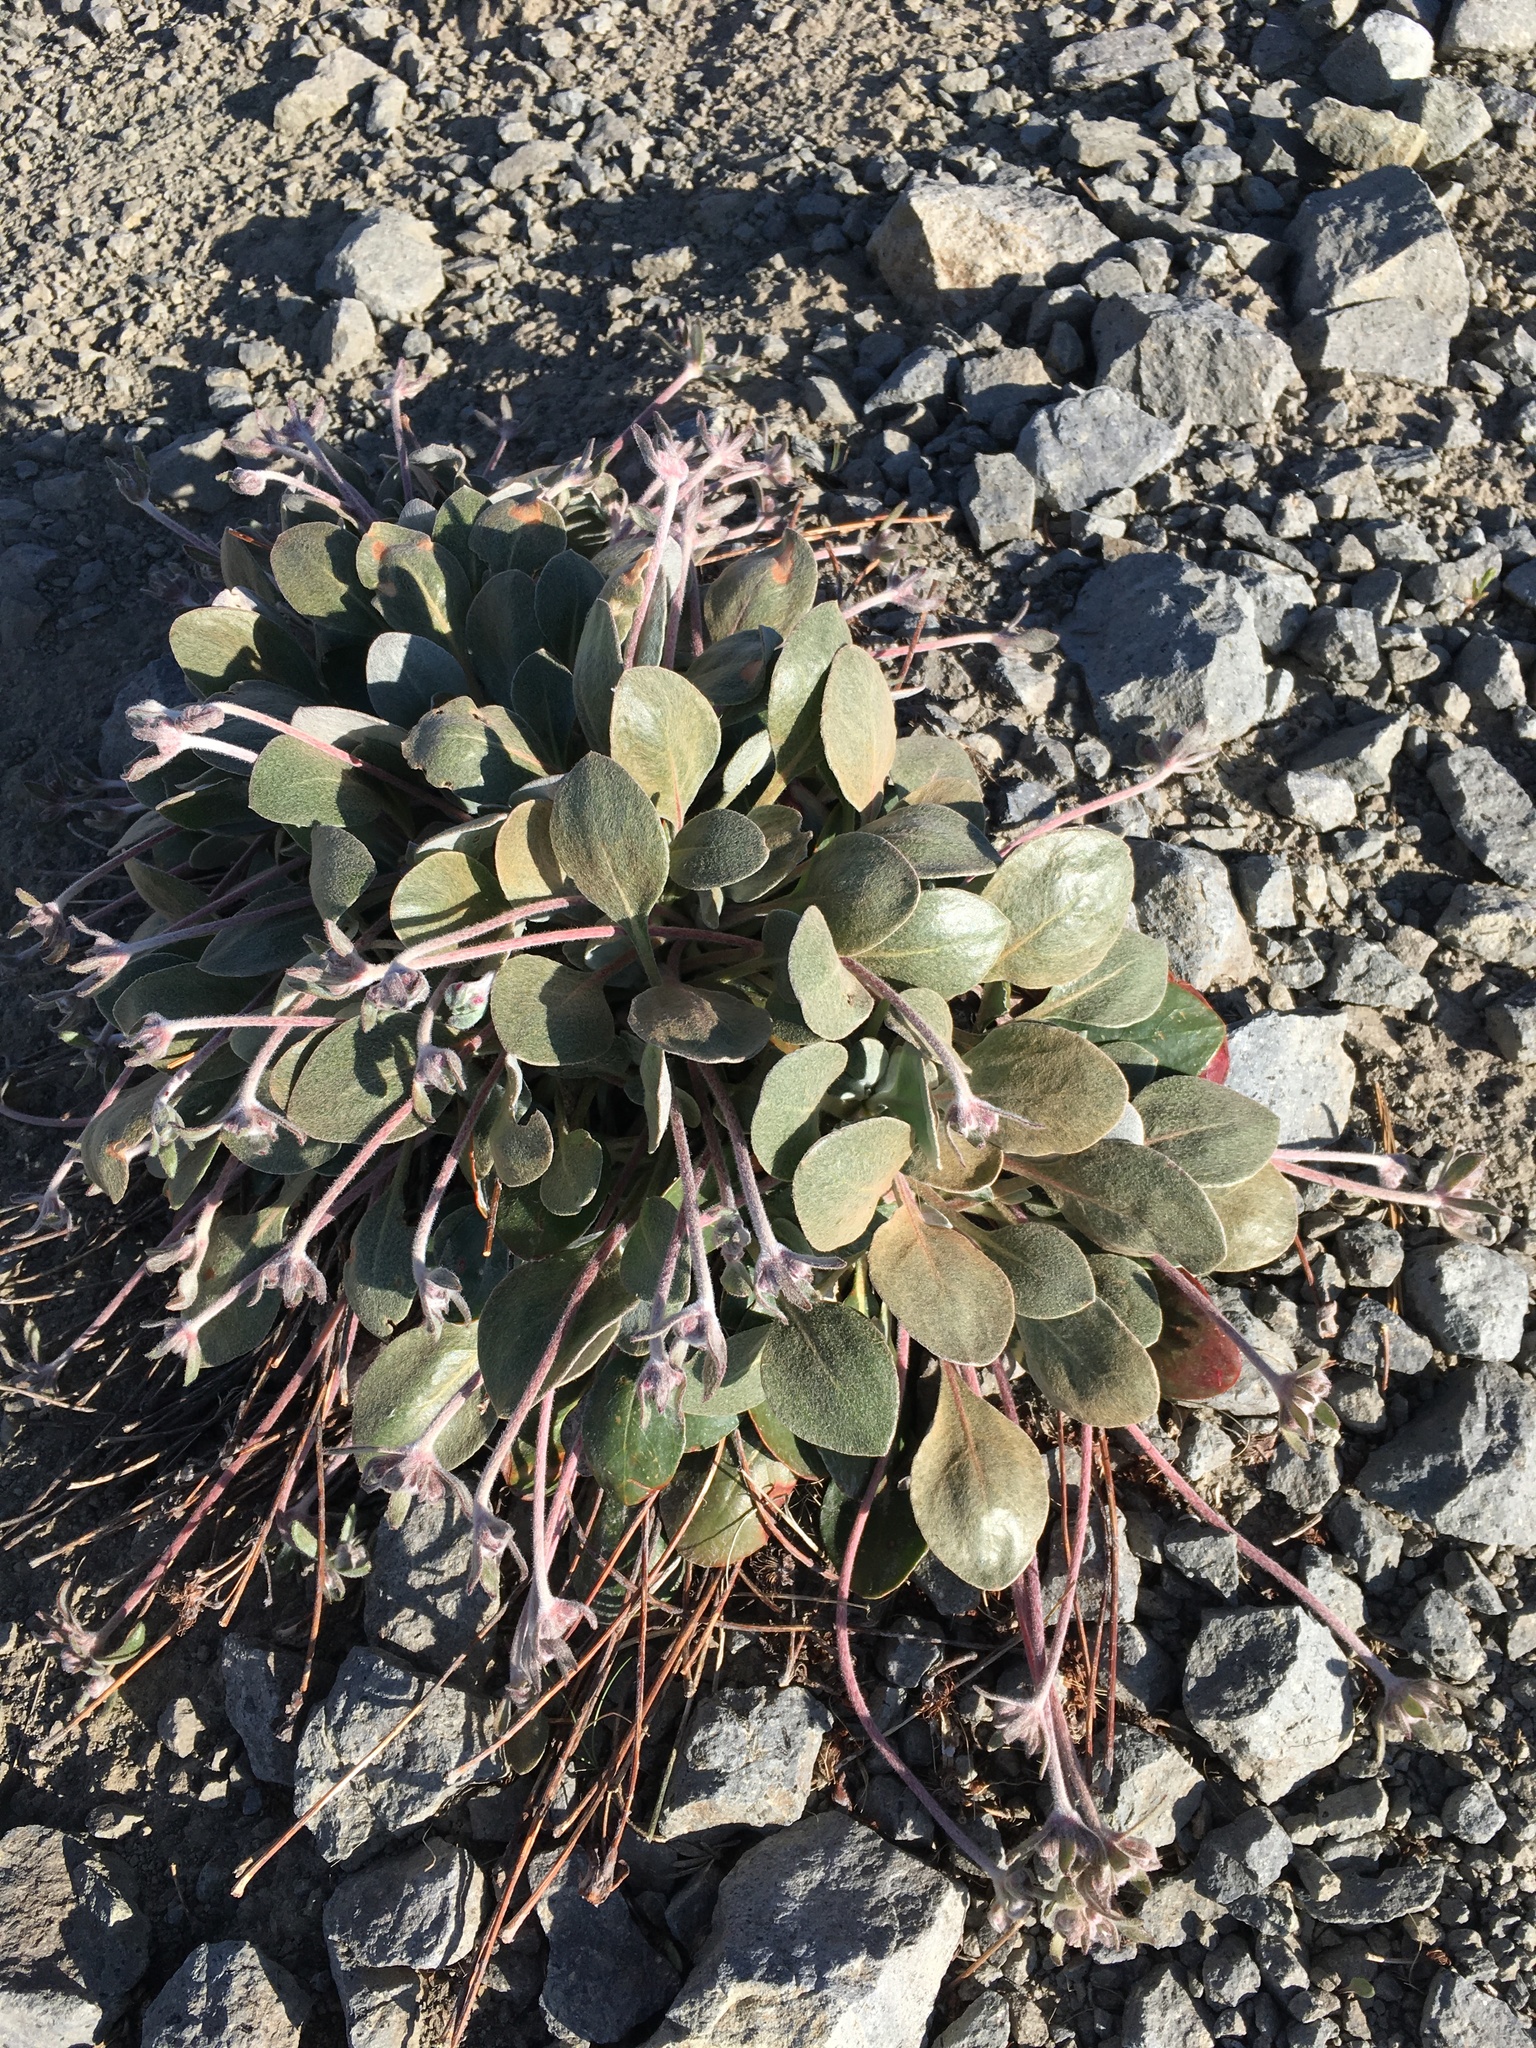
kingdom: Plantae
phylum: Tracheophyta
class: Magnoliopsida
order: Caryophyllales
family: Polygonaceae
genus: Eriogonum
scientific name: Eriogonum lobbii
